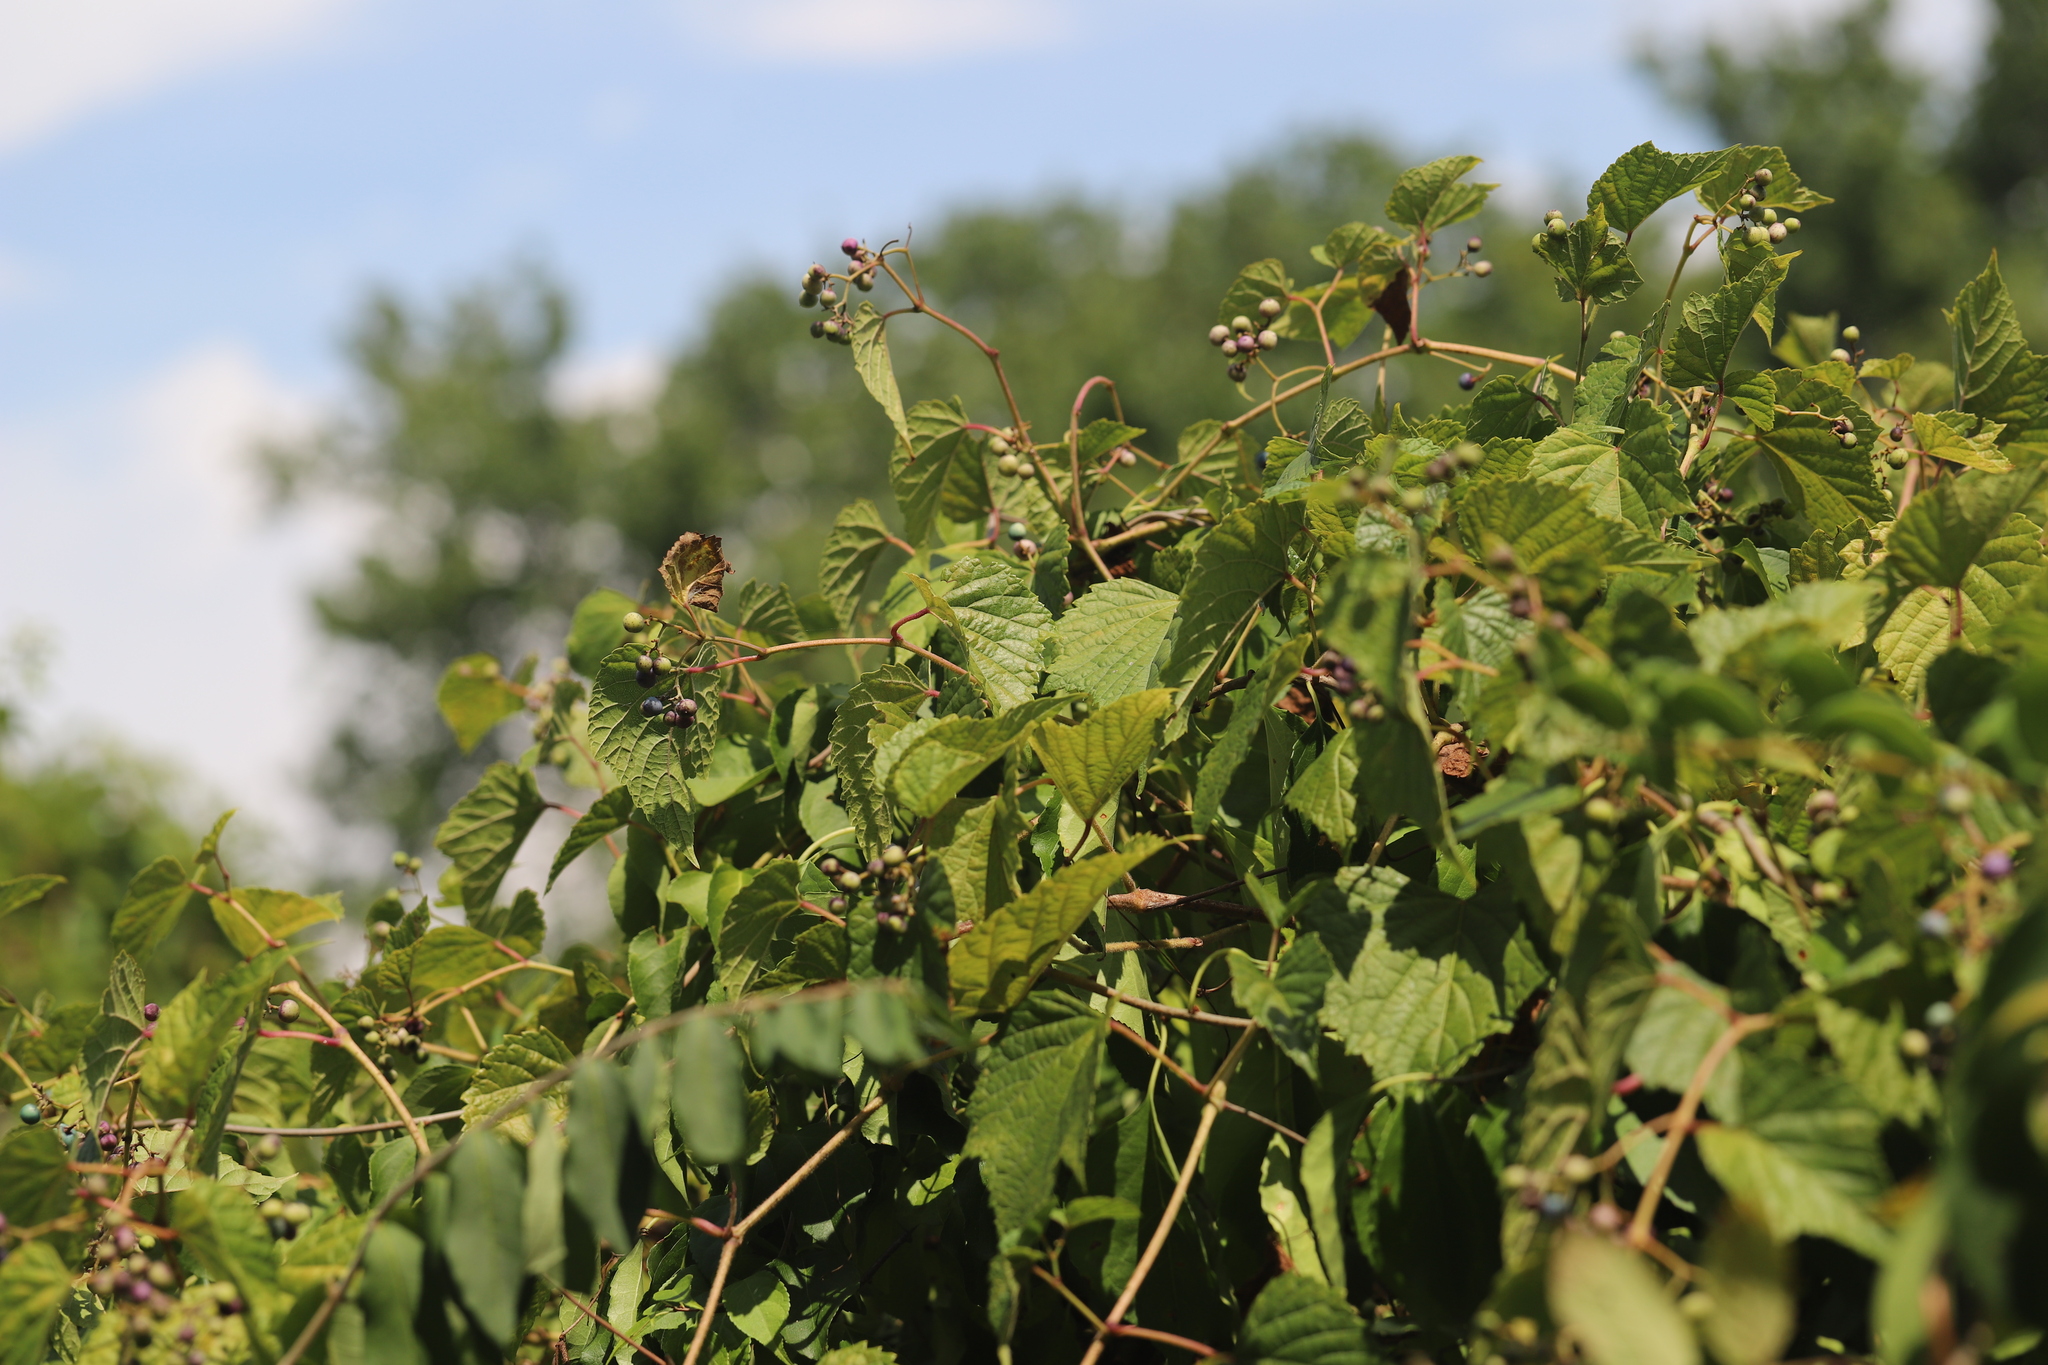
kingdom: Plantae
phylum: Tracheophyta
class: Magnoliopsida
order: Vitales
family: Vitaceae
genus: Ampelopsis
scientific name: Ampelopsis glandulosa
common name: Amur peppervine
